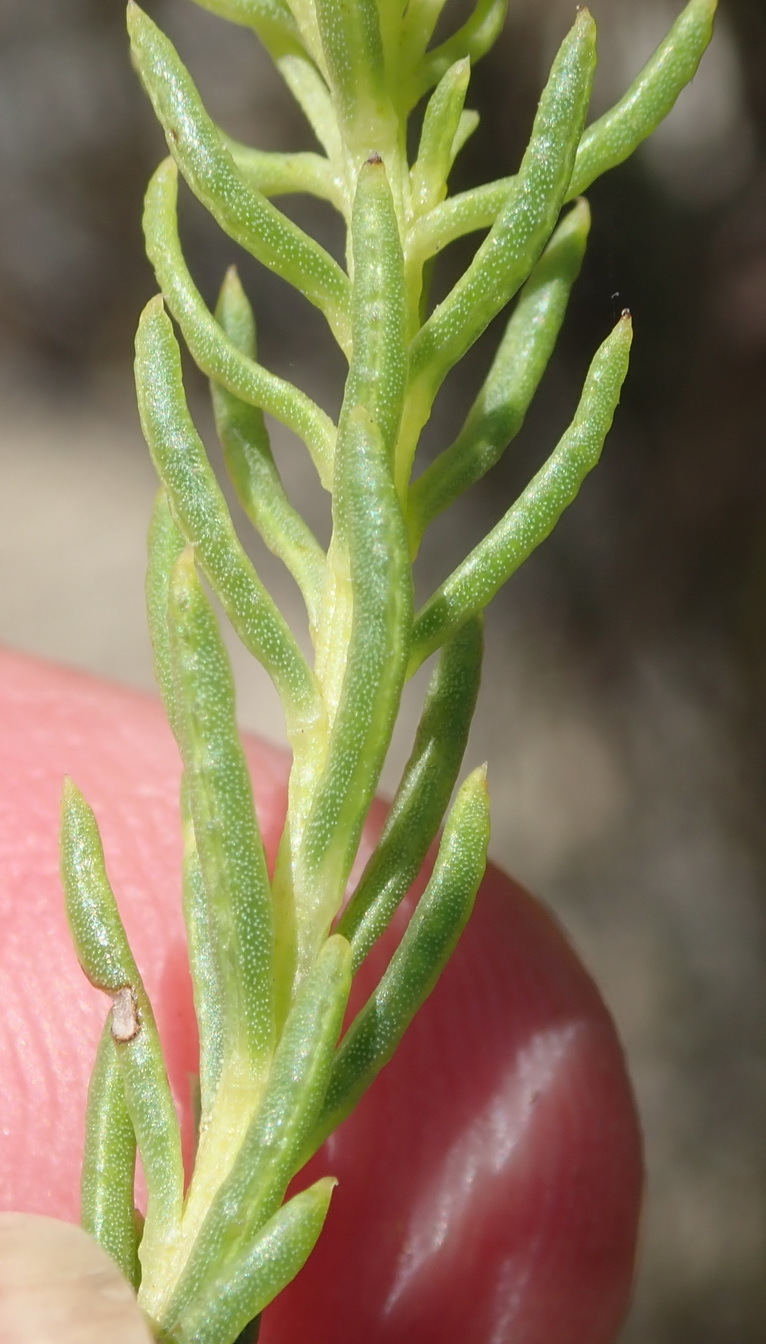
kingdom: Plantae
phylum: Tracheophyta
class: Magnoliopsida
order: Asterales
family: Asteraceae
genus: Pteronia
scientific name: Pteronia teretifolia
